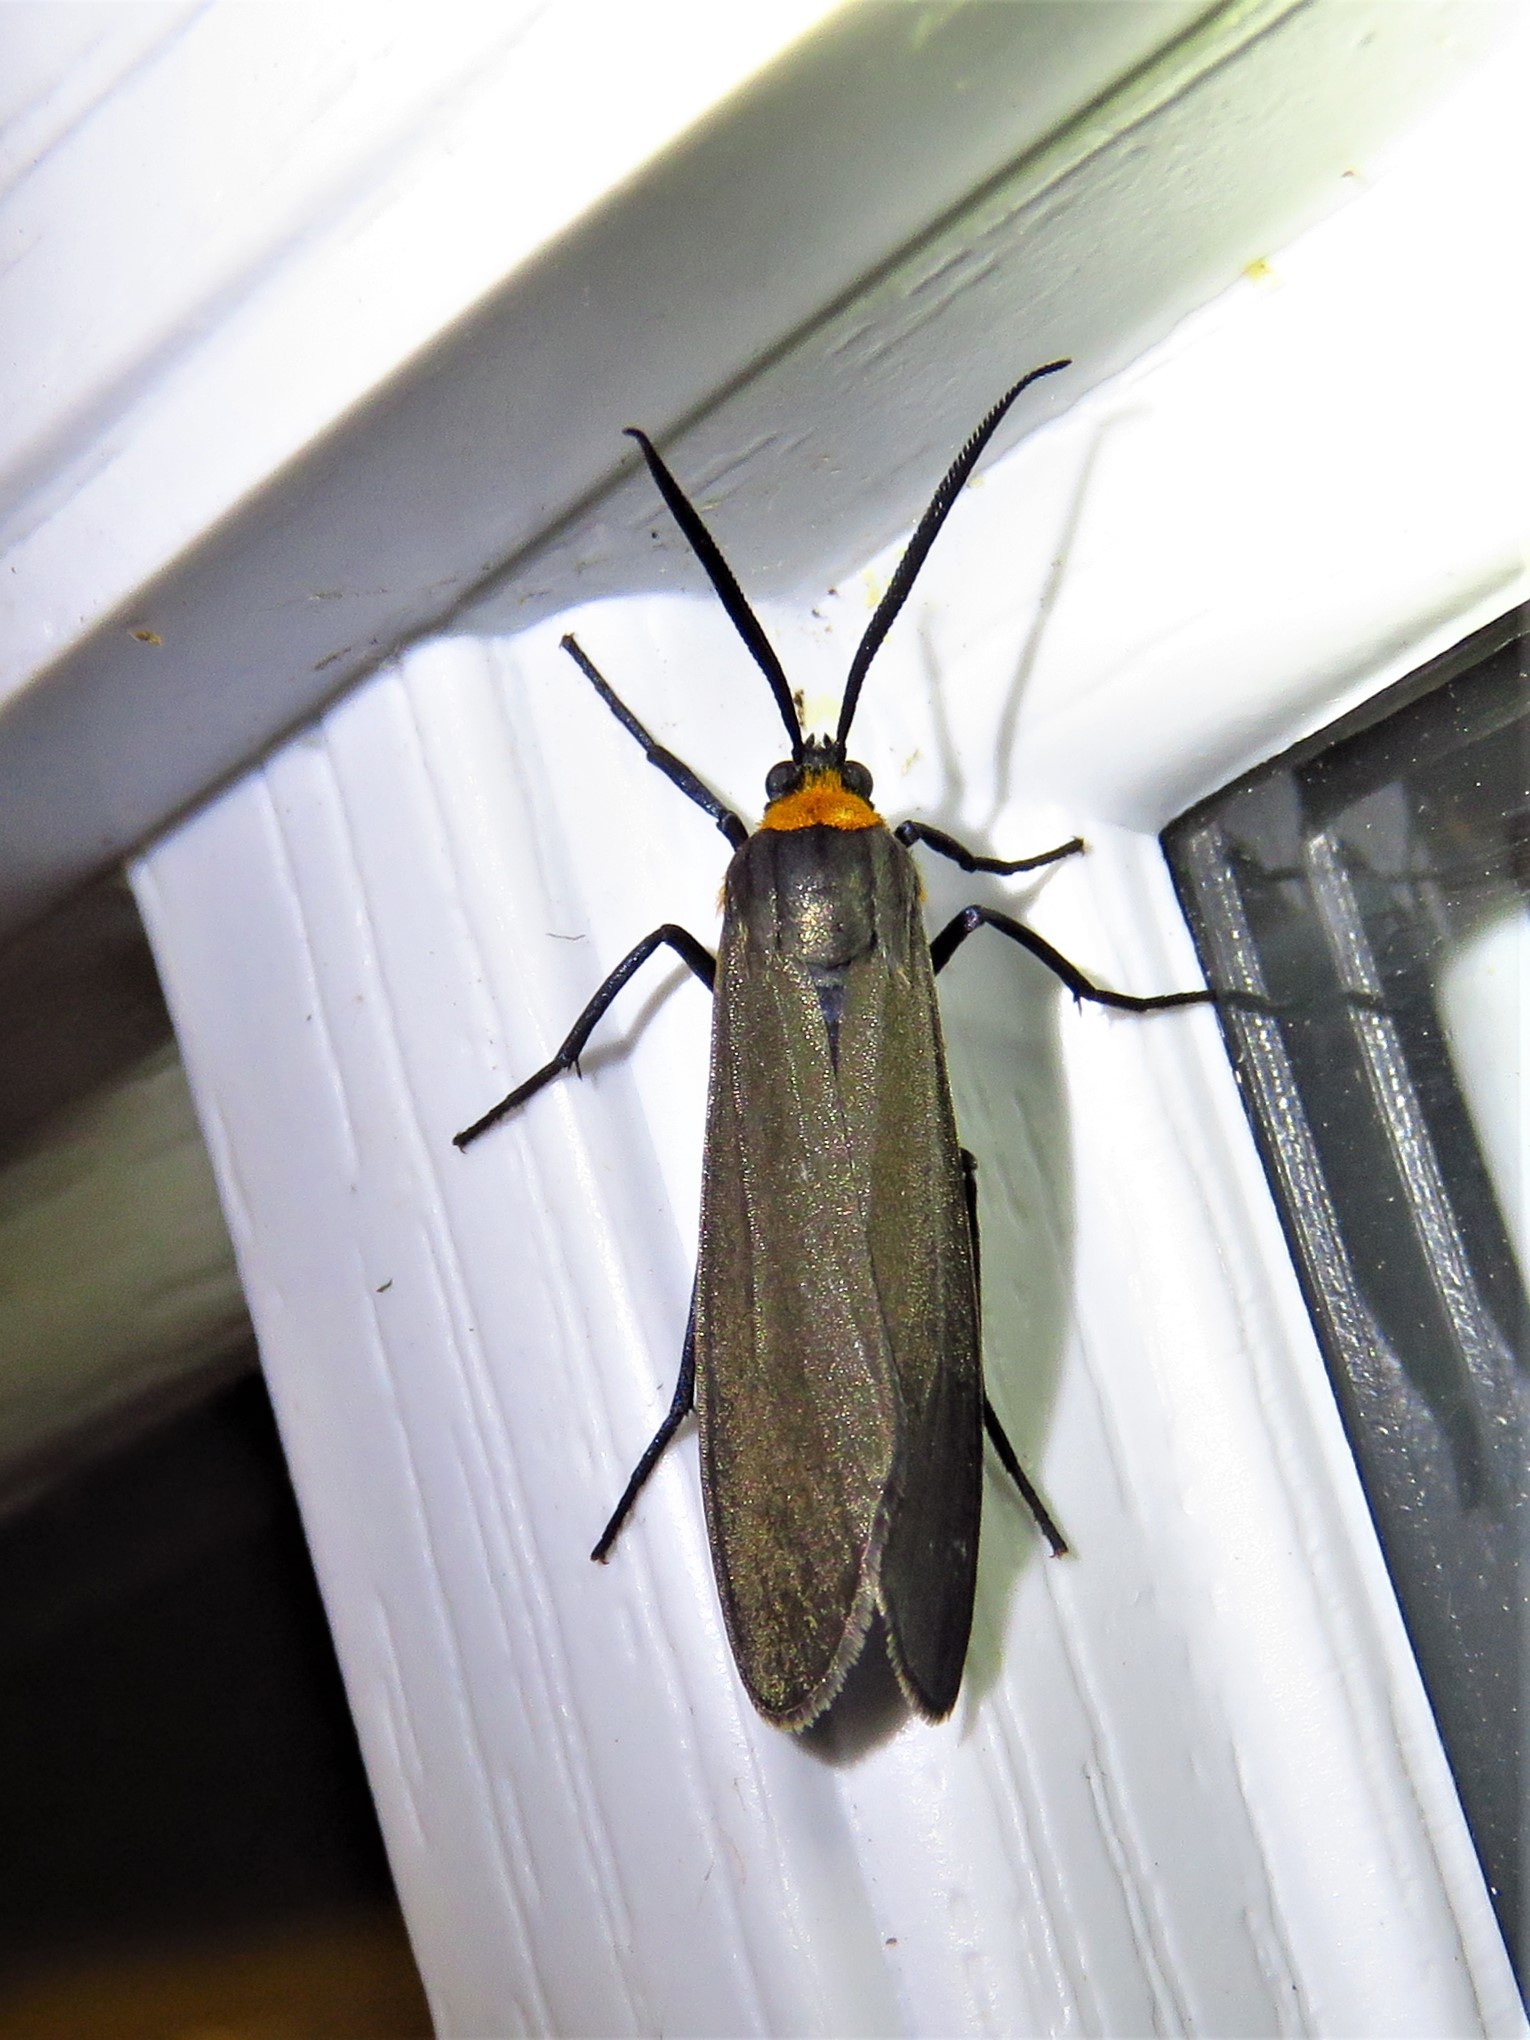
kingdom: Animalia
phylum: Arthropoda
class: Insecta
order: Lepidoptera
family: Erebidae
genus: Cisseps
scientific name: Cisseps fulvicollis
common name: Yellow-collared scape moth
